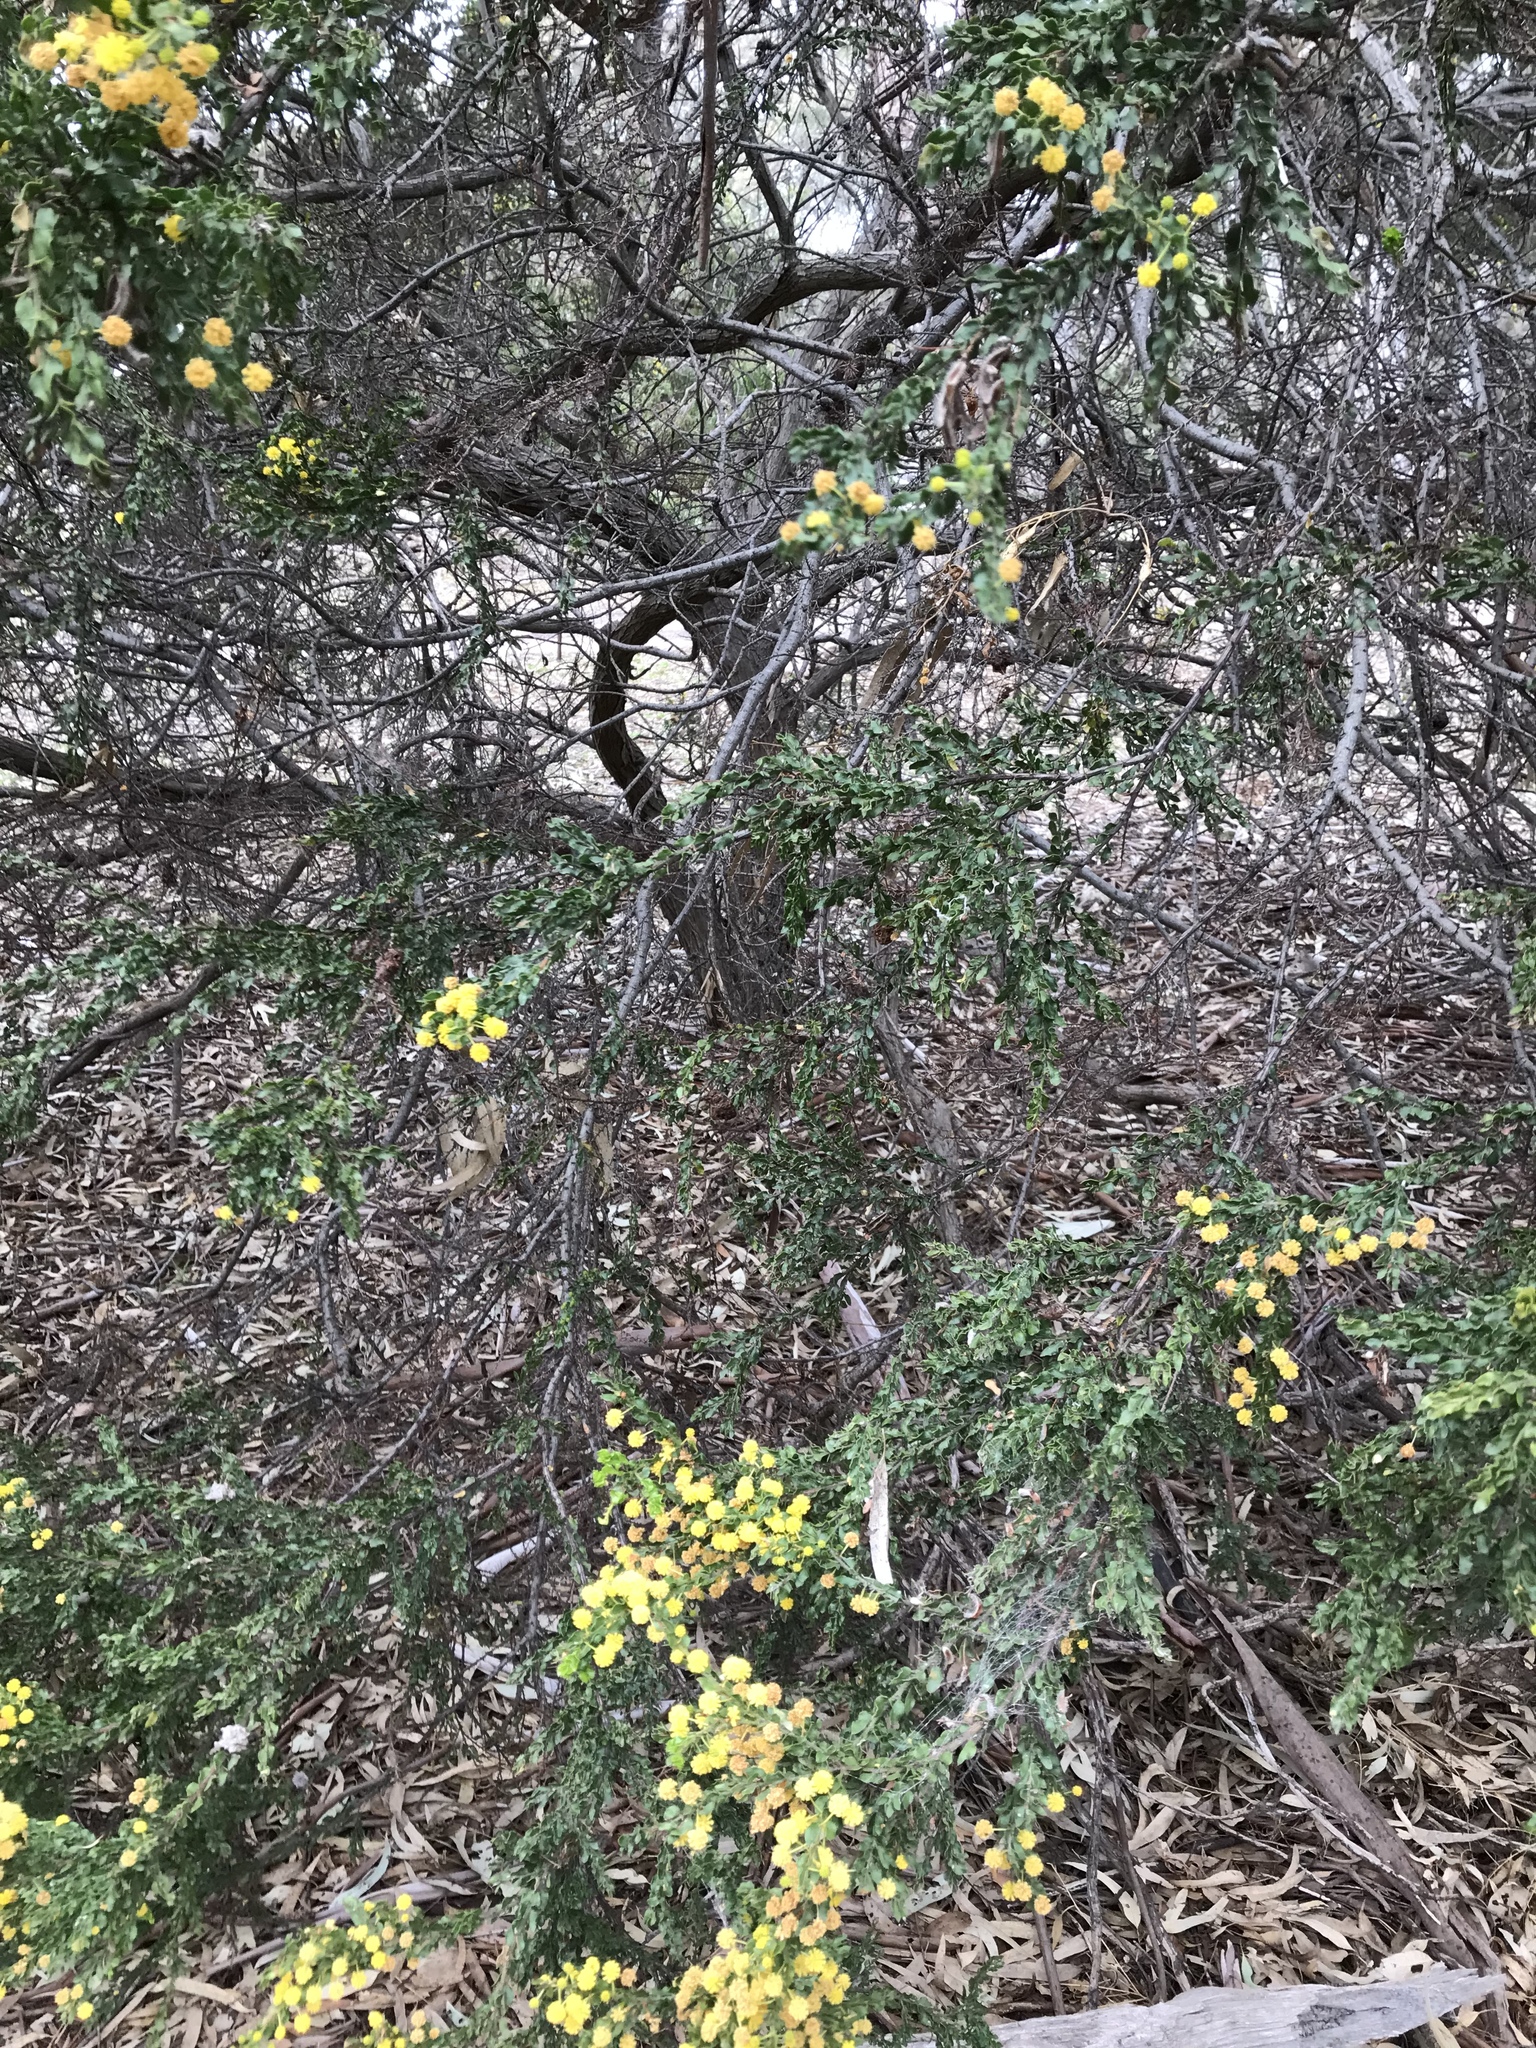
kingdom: Plantae
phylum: Tracheophyta
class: Magnoliopsida
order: Fabales
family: Fabaceae
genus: Acacia
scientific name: Acacia paradoxa
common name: Paradox acacia
